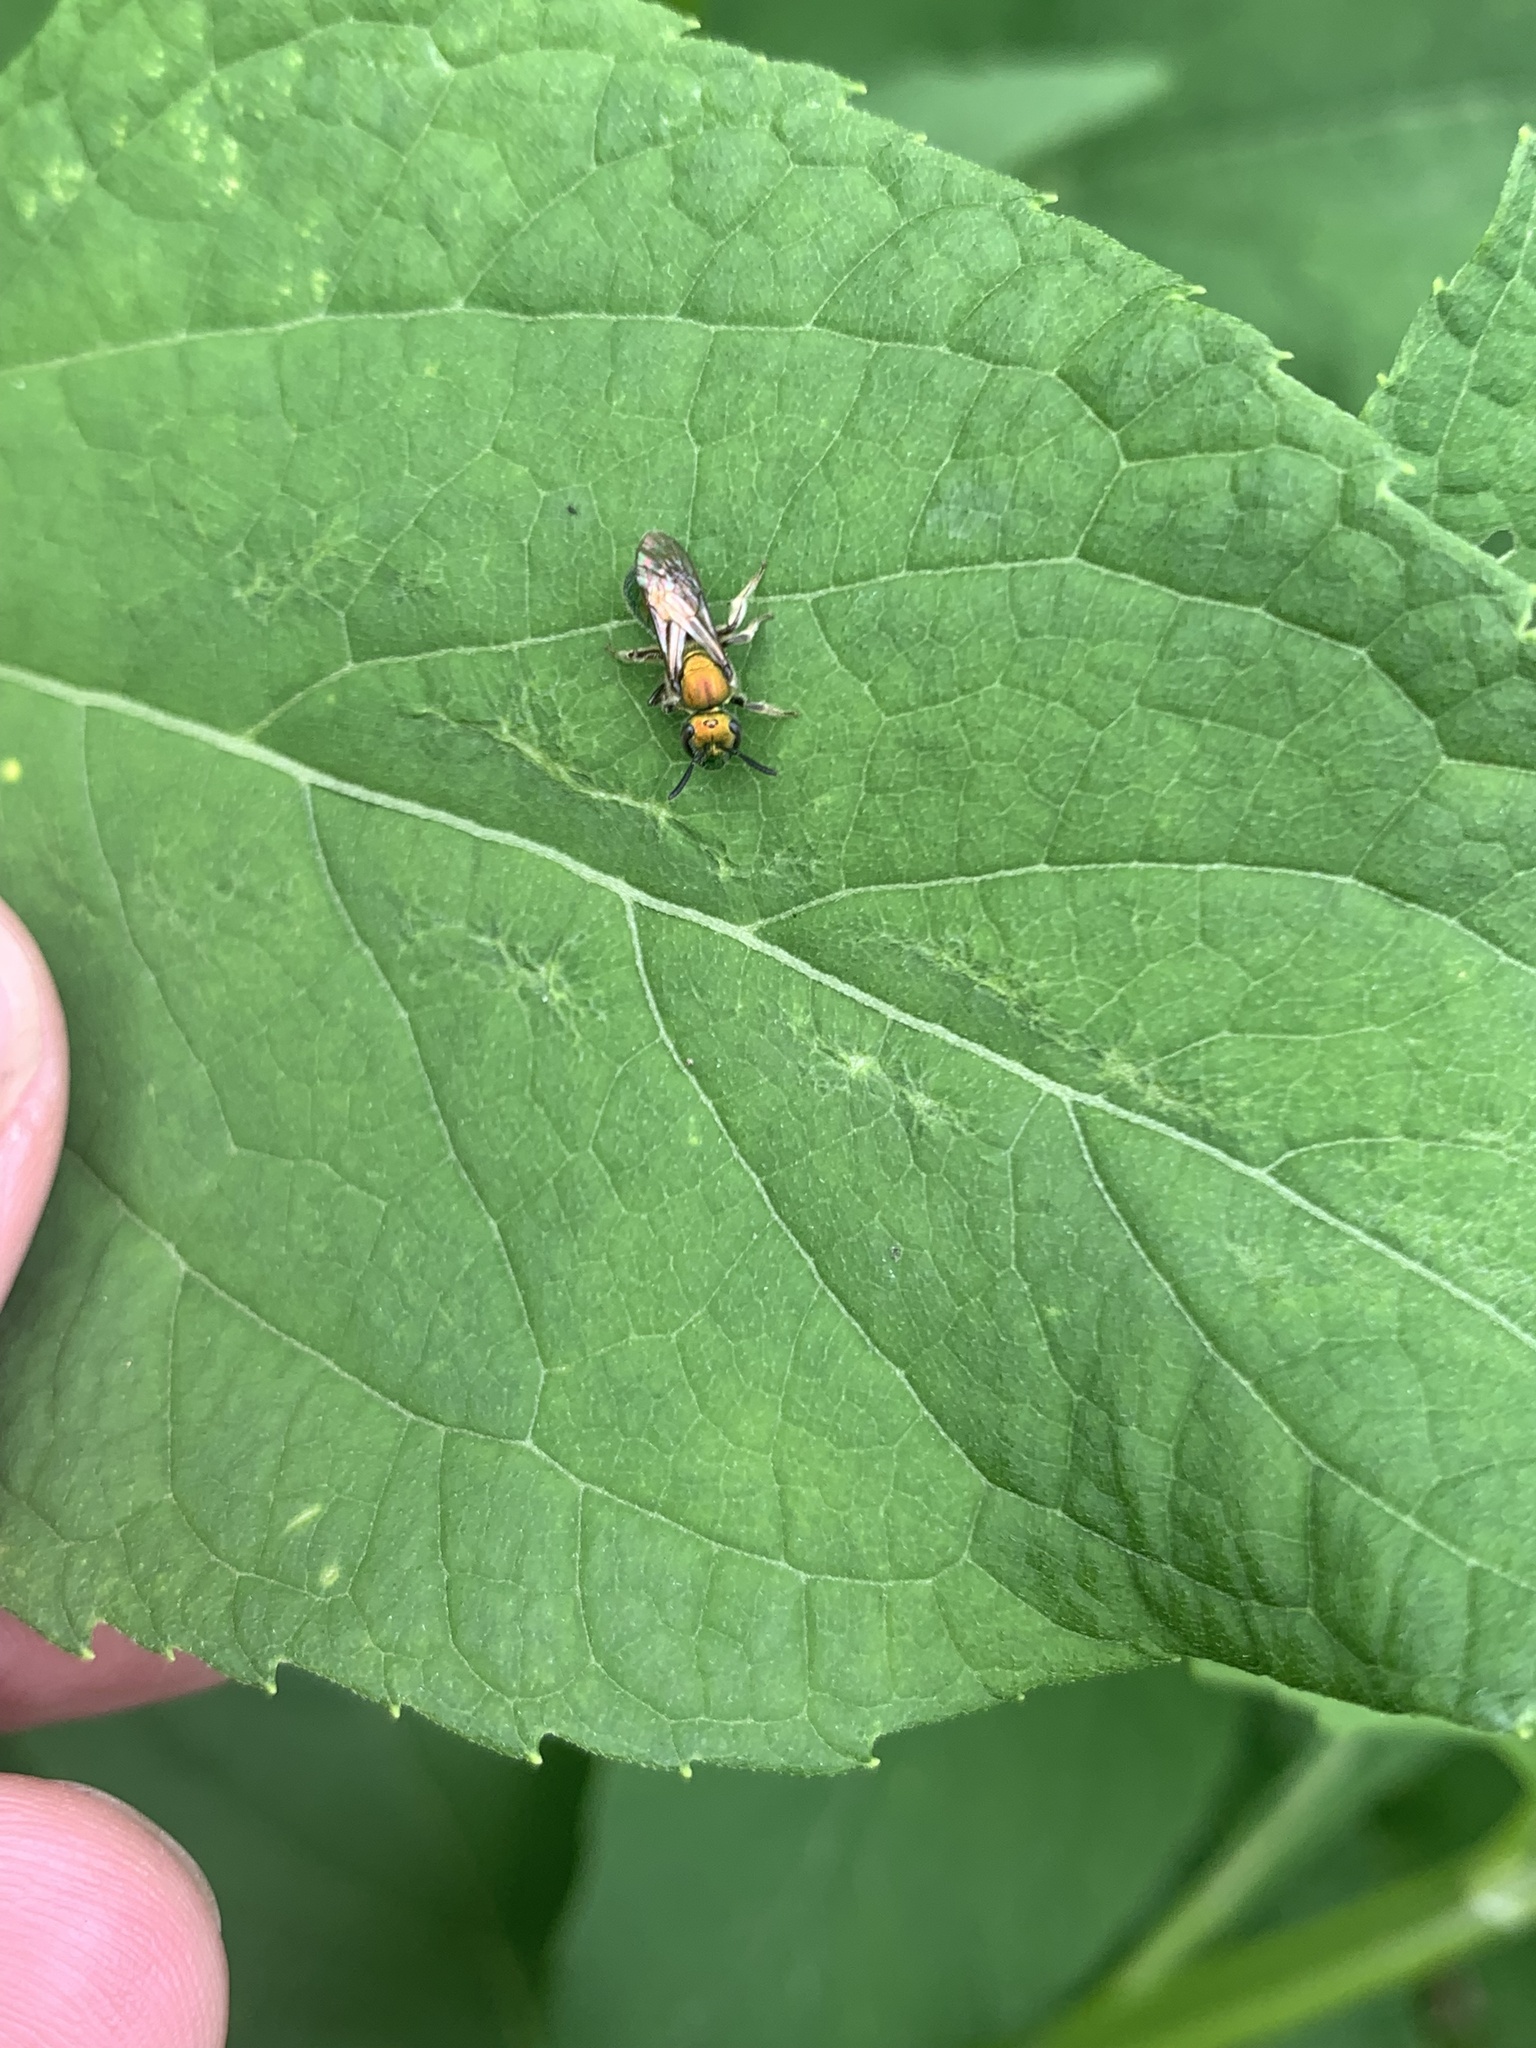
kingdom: Animalia
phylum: Arthropoda
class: Insecta
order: Hymenoptera
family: Halictidae
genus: Augochlora
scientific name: Augochlora pura
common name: Pure green sweat bee
